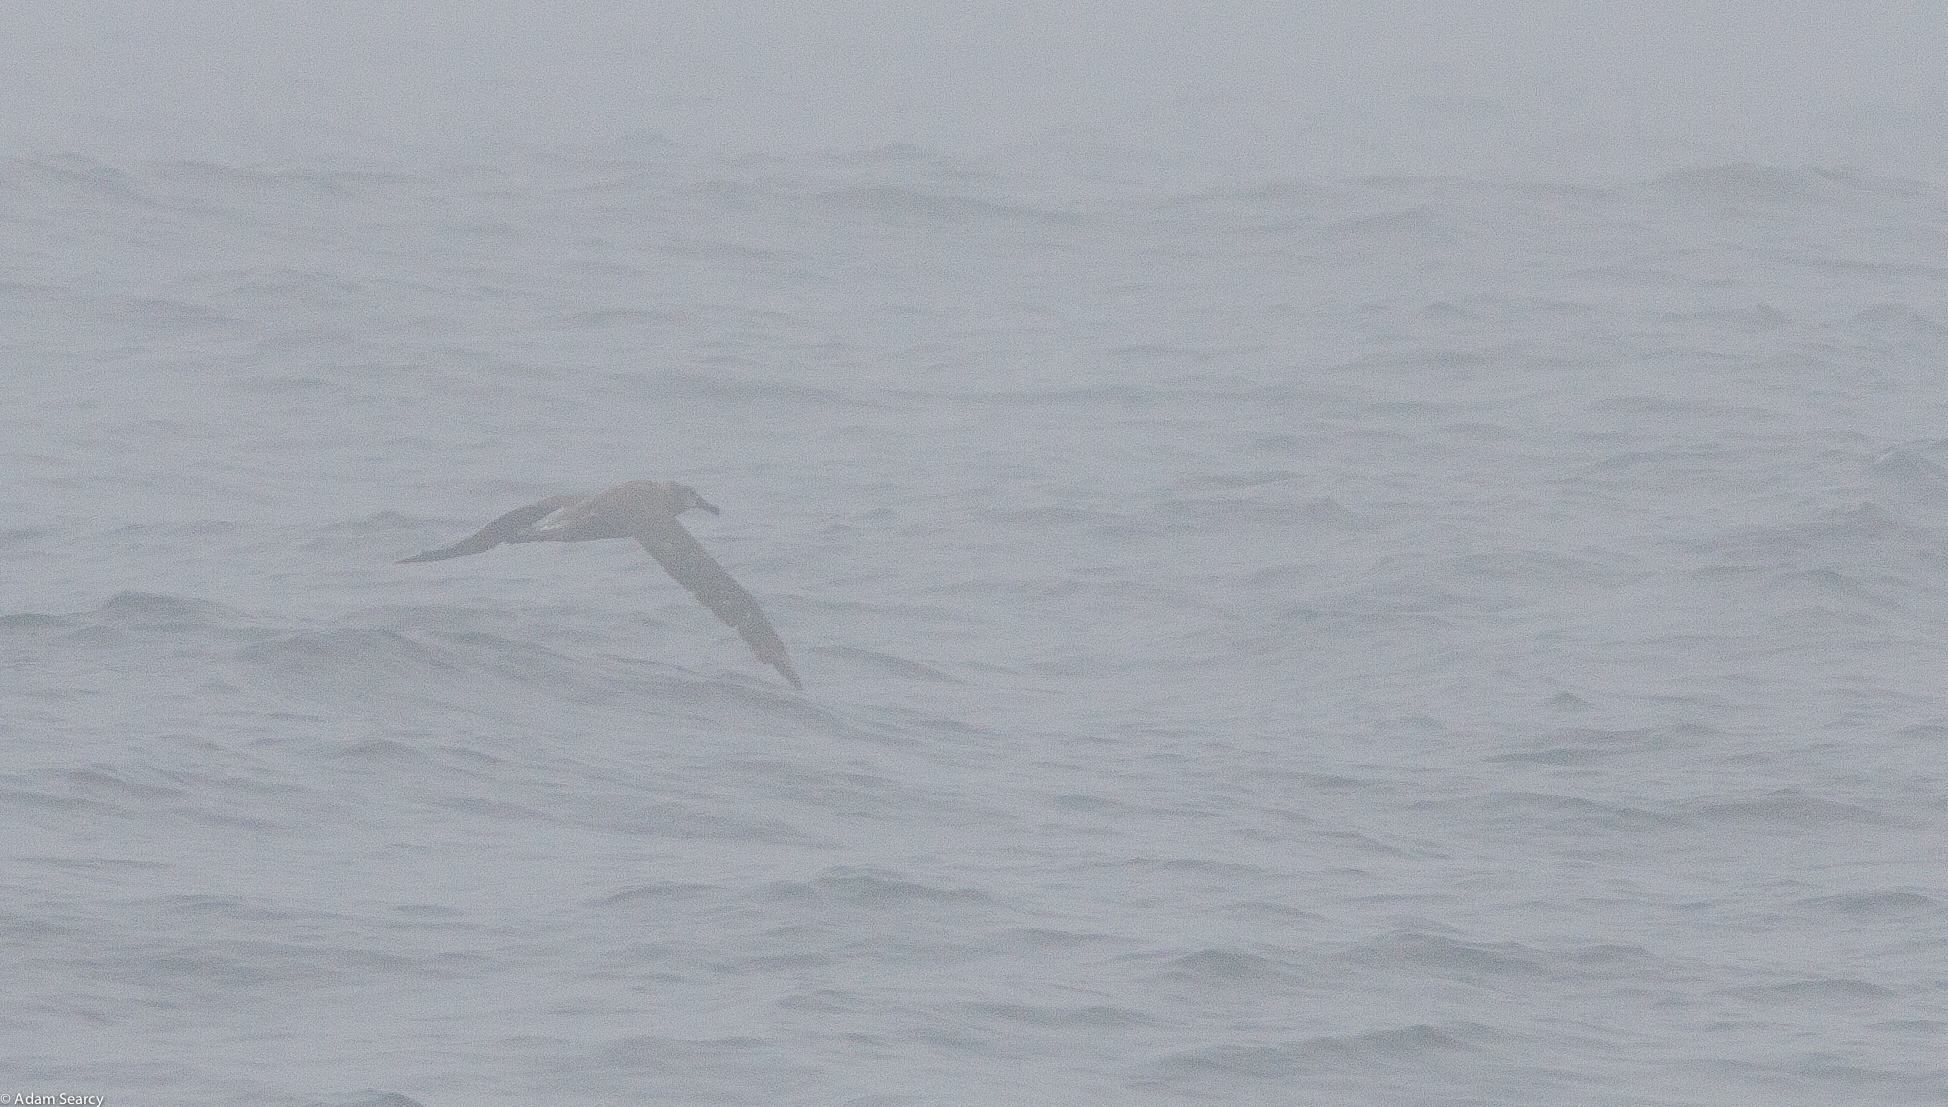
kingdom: Animalia
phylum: Chordata
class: Aves
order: Procellariiformes
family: Diomedeidae
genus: Phoebastria
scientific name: Phoebastria nigripes
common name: Black-footed albatross
